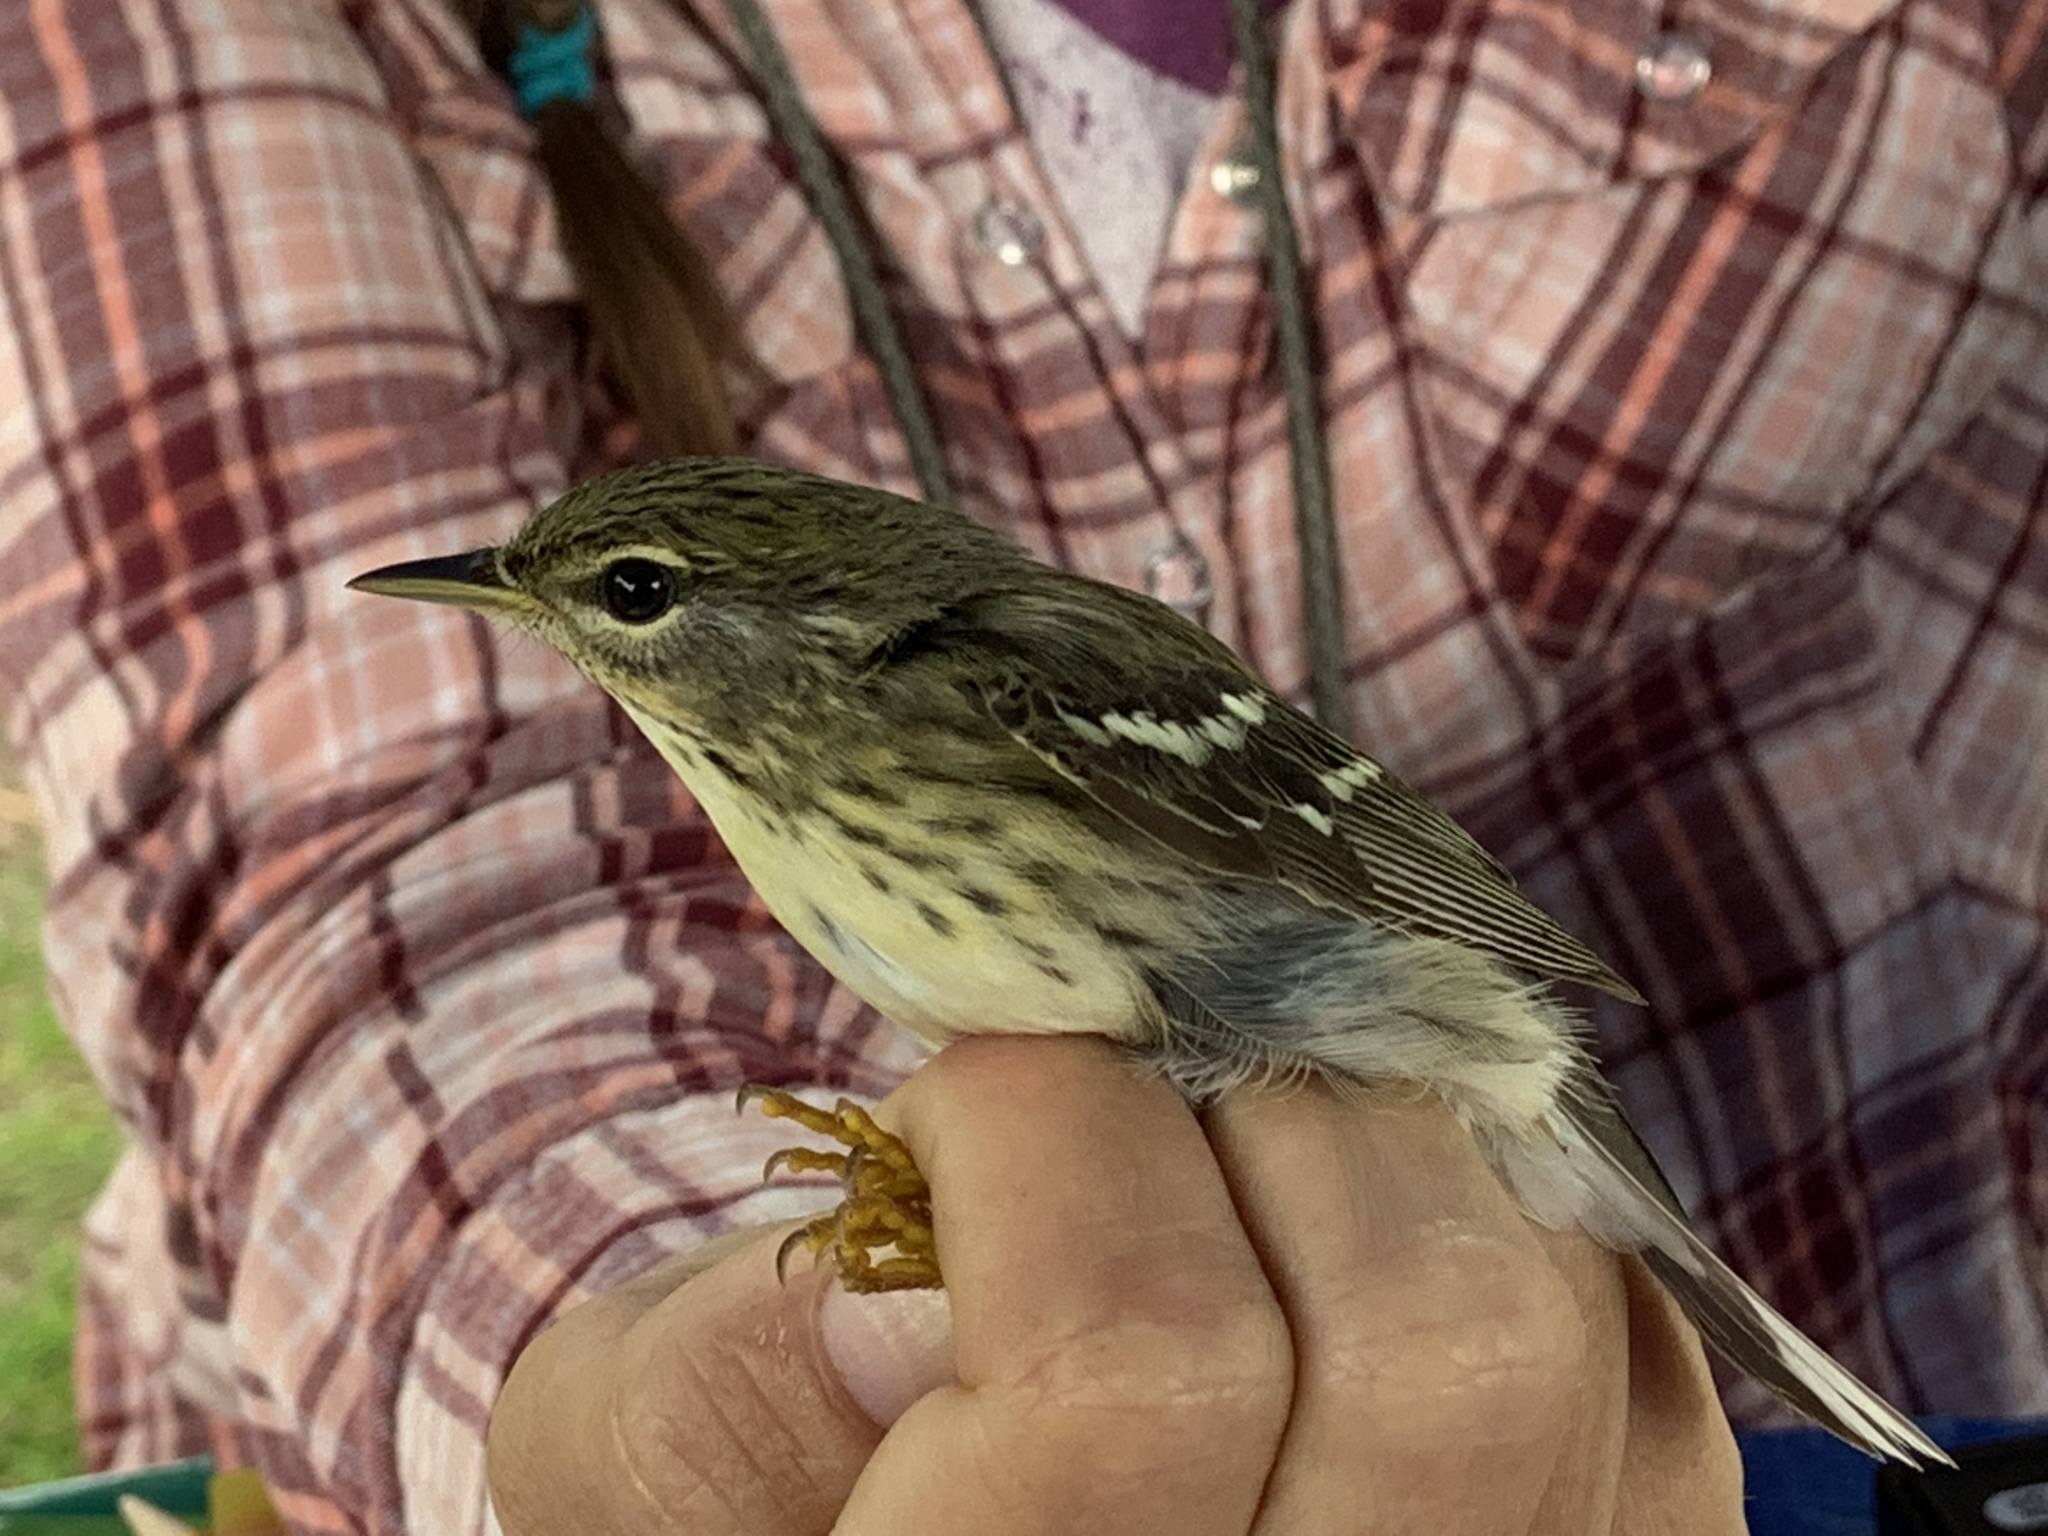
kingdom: Animalia
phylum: Chordata
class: Aves
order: Passeriformes
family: Parulidae
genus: Setophaga
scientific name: Setophaga striata
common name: Blackpoll warbler
